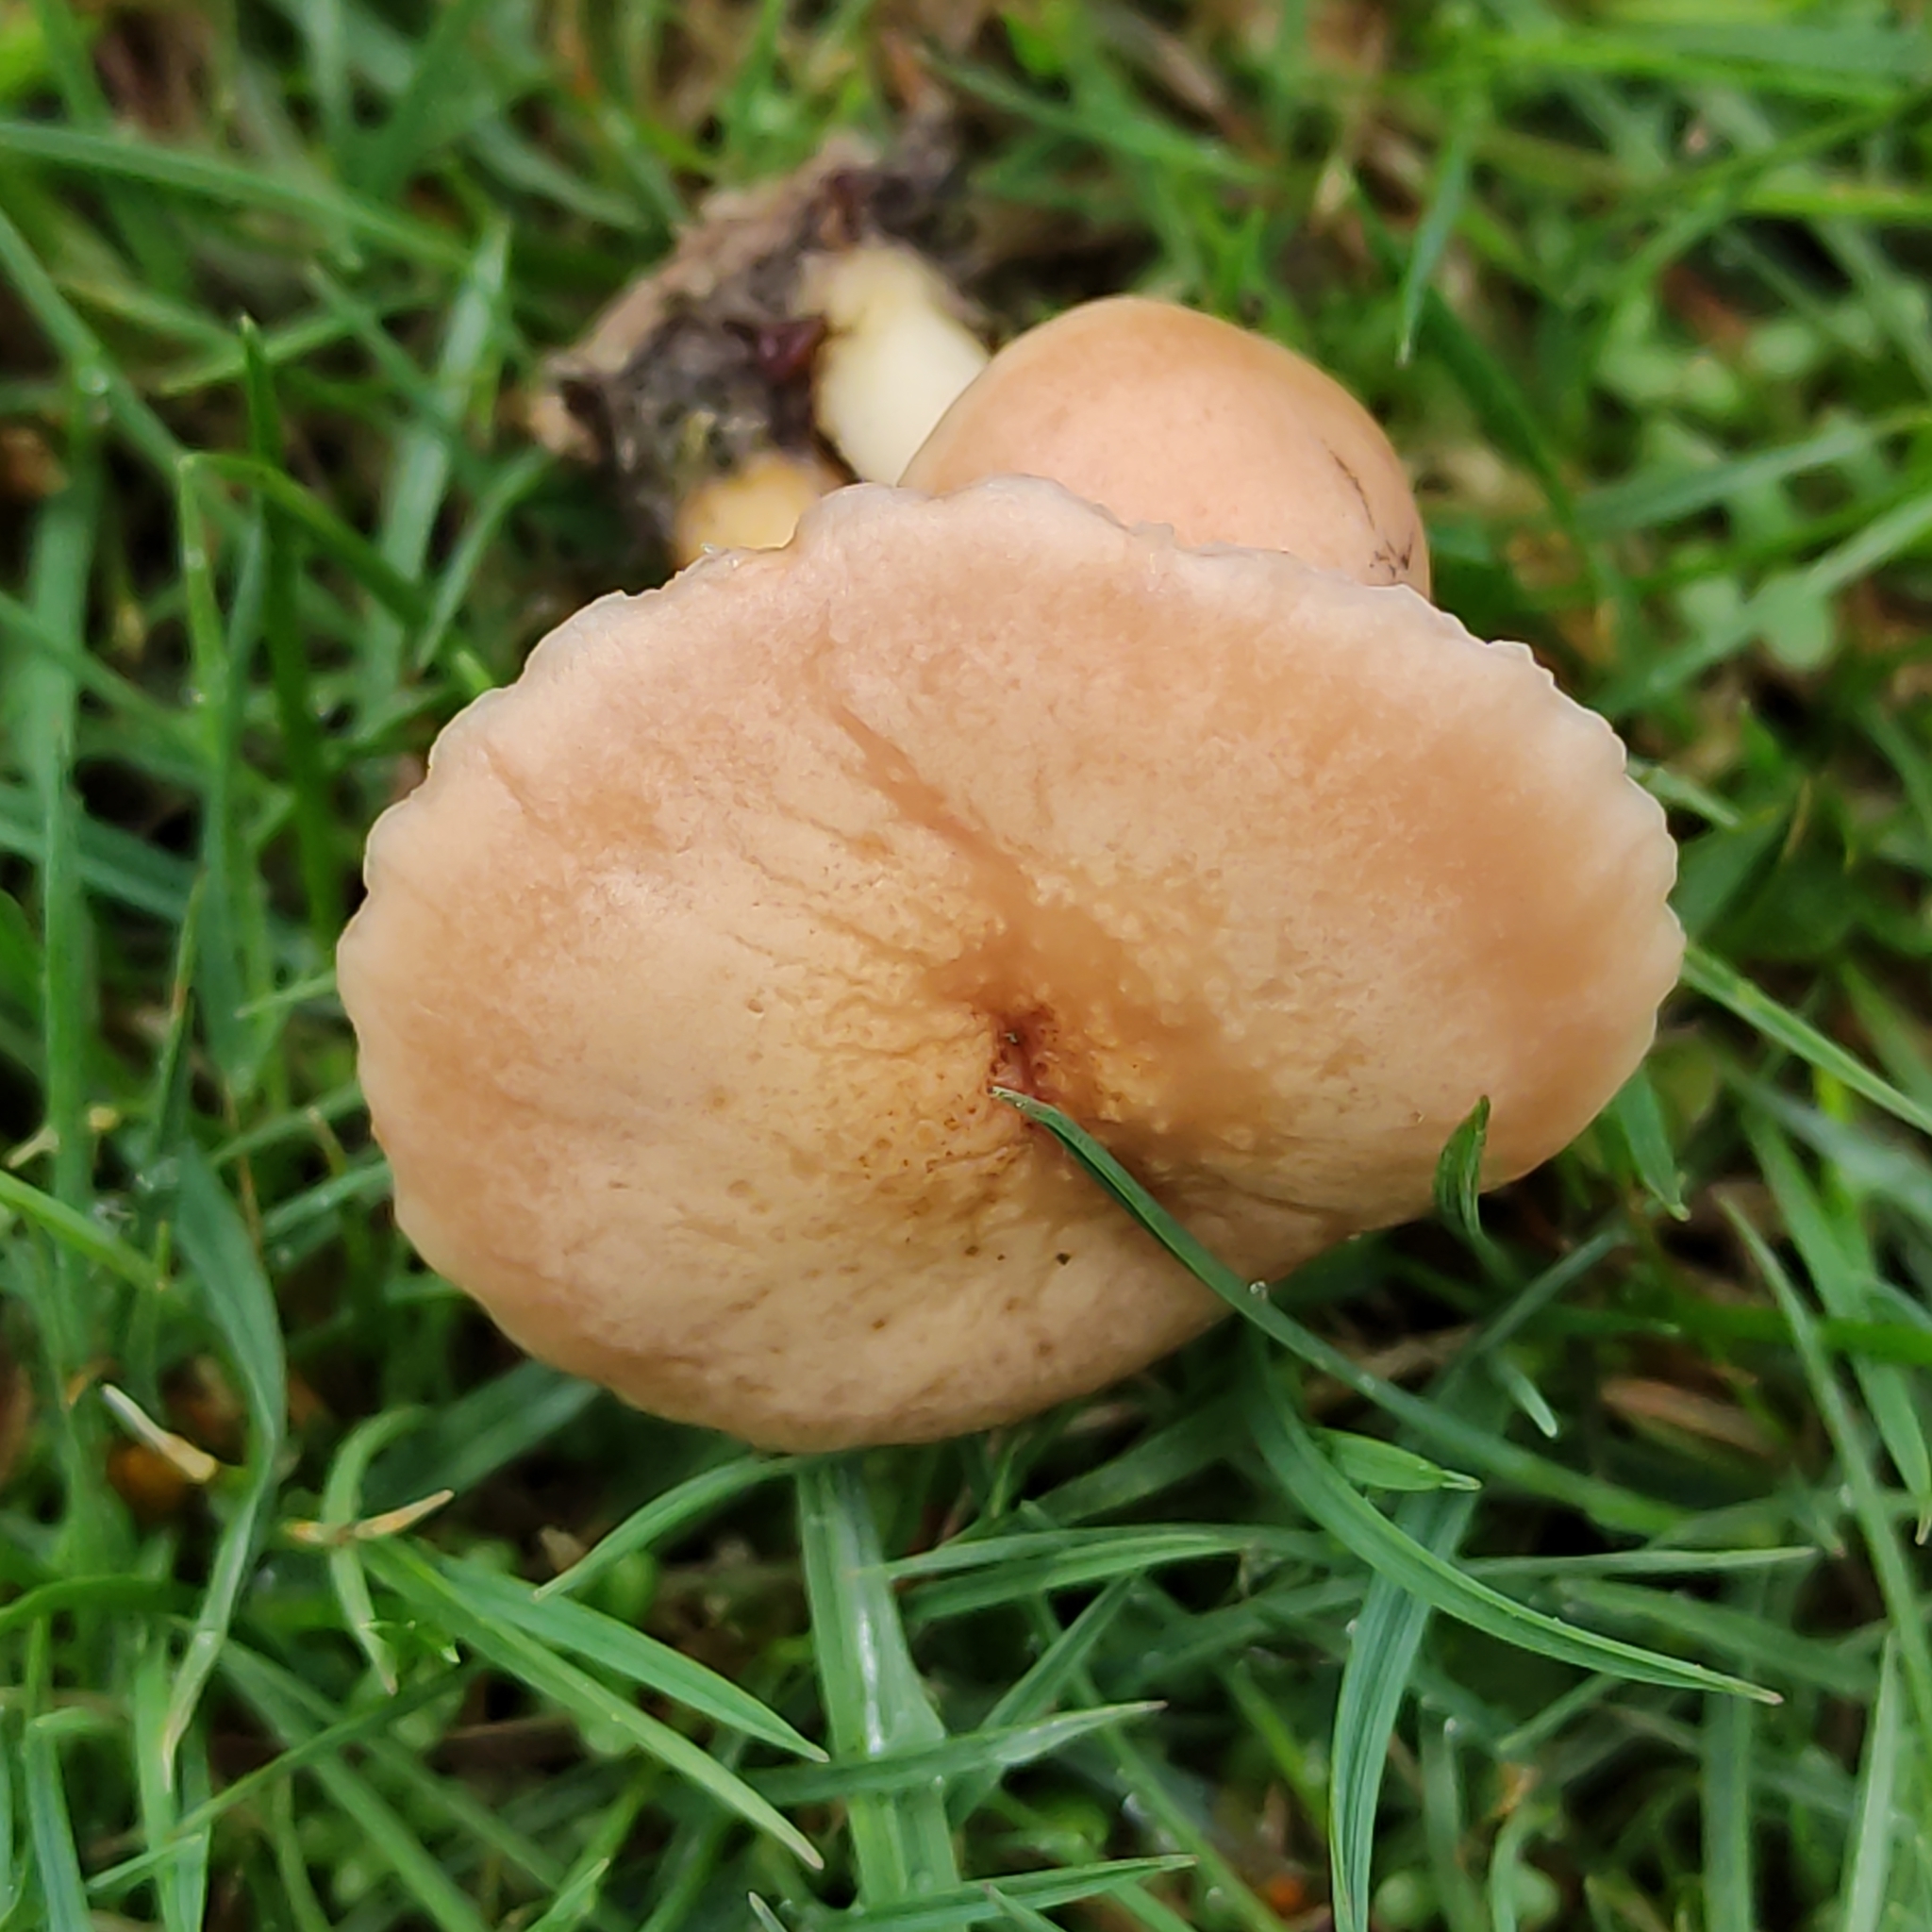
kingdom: Fungi
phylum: Basidiomycota
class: Agaricomycetes
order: Agaricales
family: Marasmiaceae
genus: Marasmius
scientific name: Marasmius oreades
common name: Fairy ring champignon
